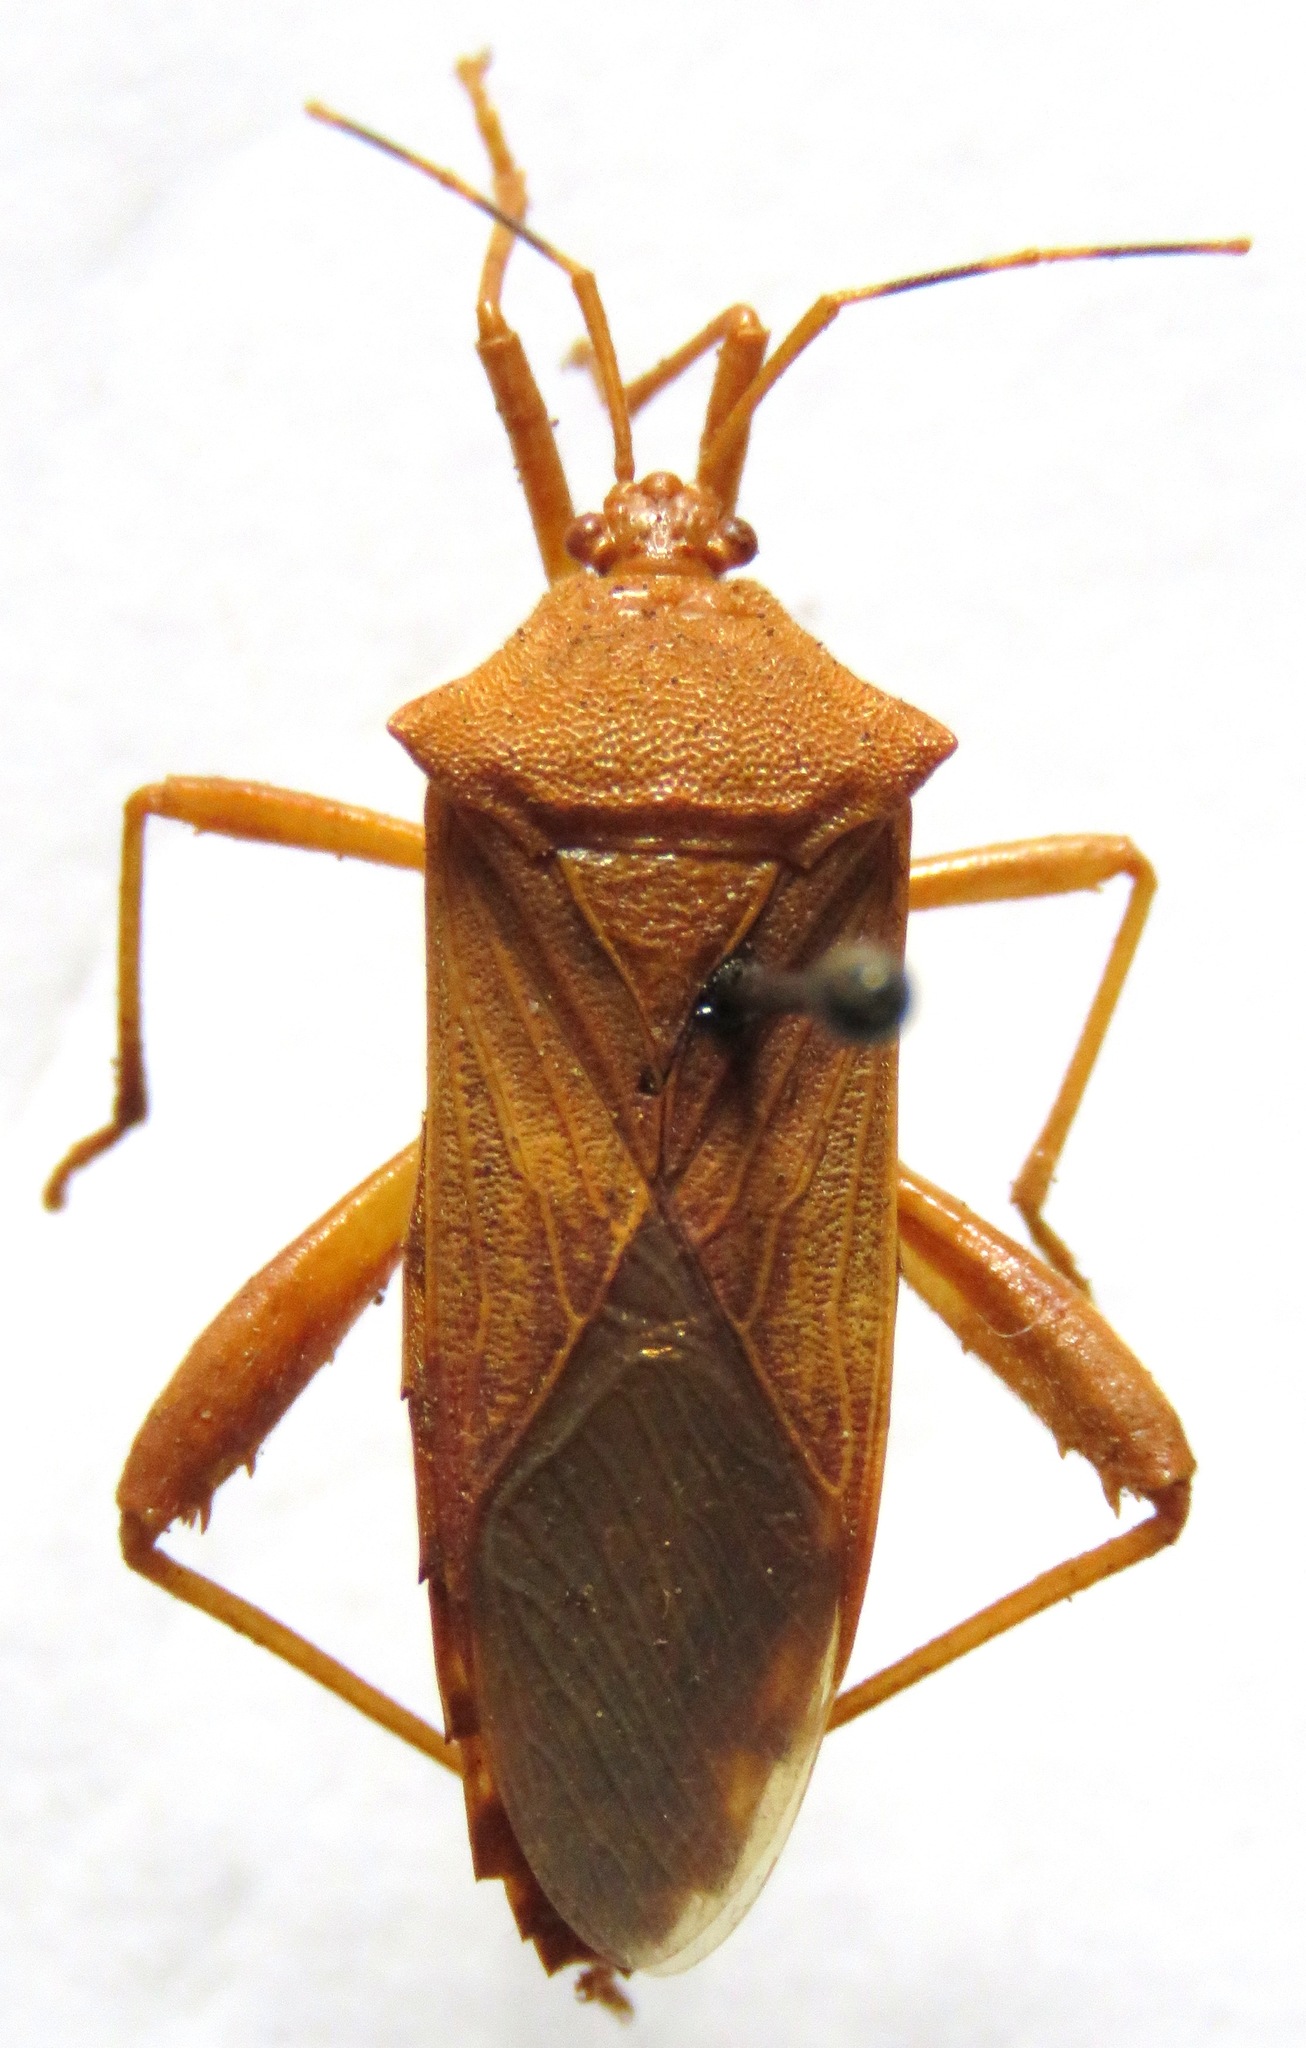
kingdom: Animalia
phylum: Arthropoda
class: Insecta
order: Hemiptera
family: Coreidae
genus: Nematopus
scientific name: Nematopus nigroannulatus
